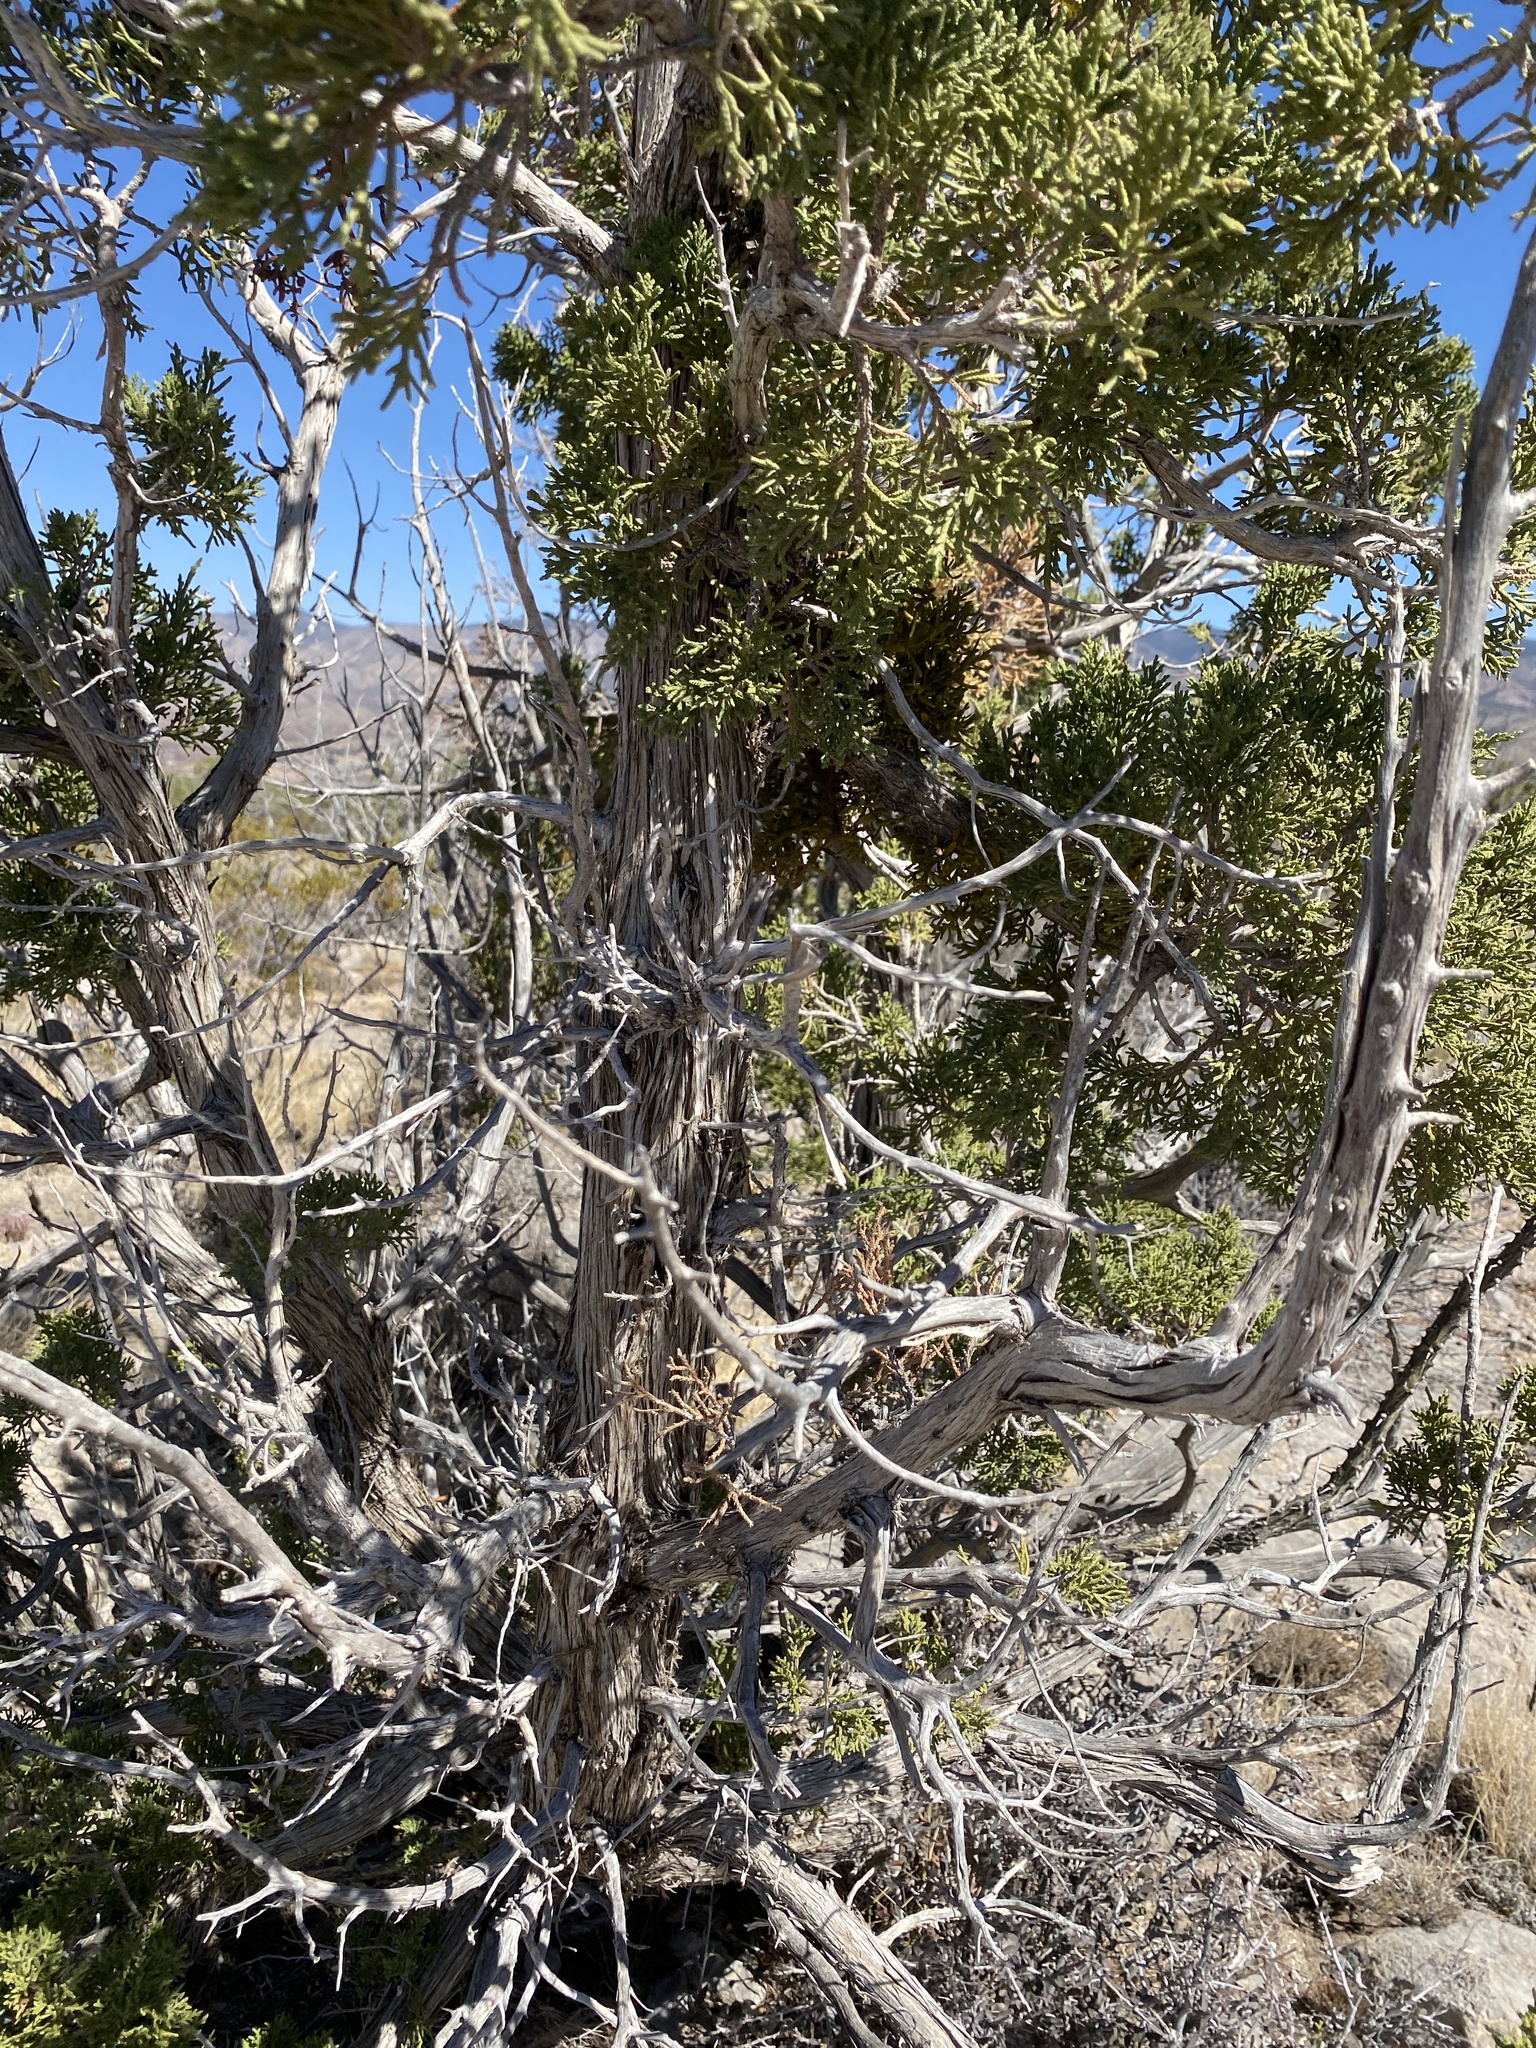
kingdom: Plantae
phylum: Tracheophyta
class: Pinopsida
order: Pinales
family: Cupressaceae
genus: Juniperus
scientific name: Juniperus monosperma
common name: One-seed juniper
